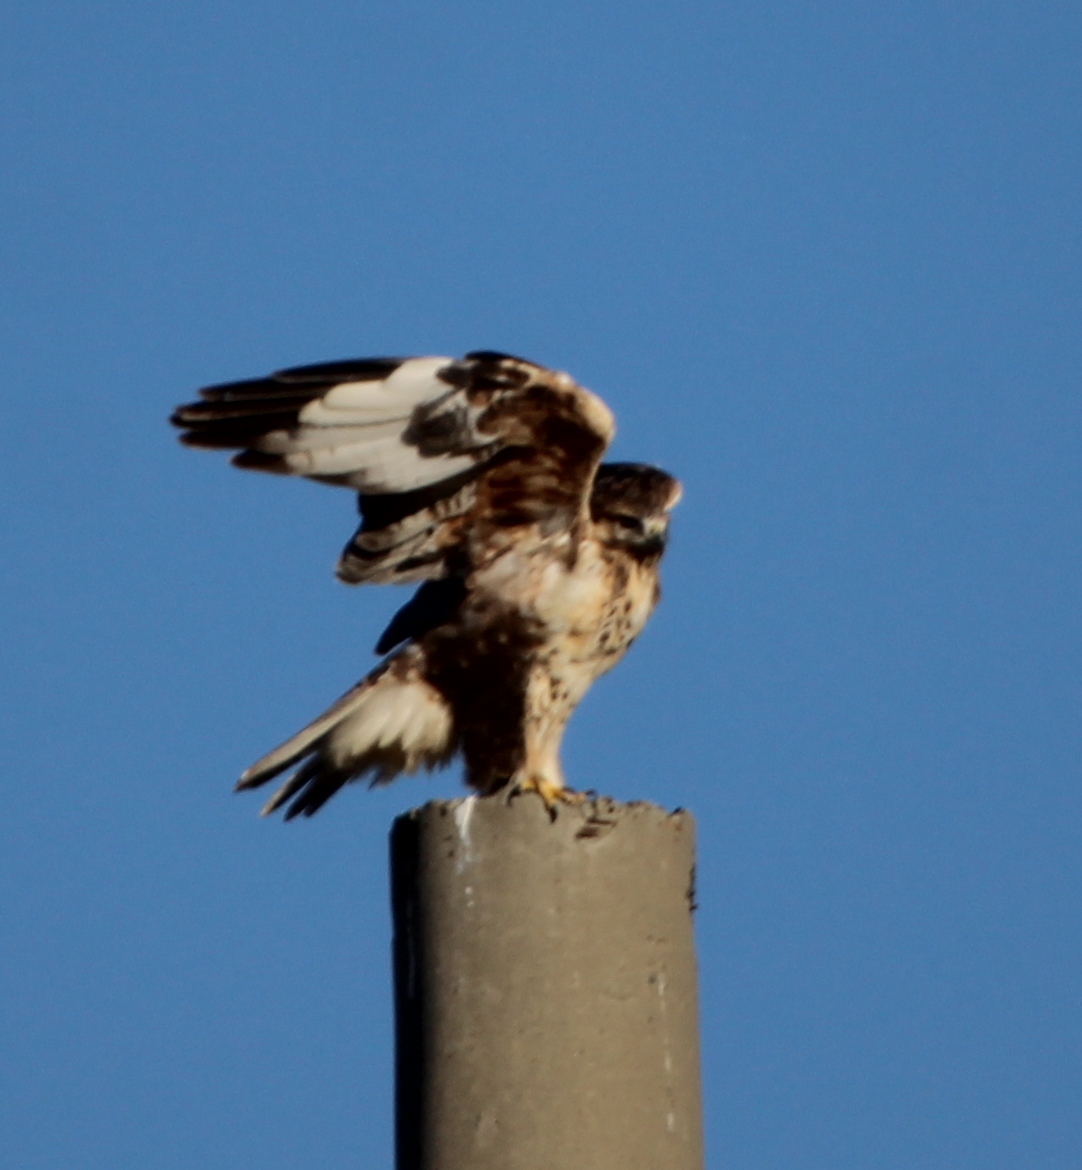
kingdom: Animalia
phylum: Chordata
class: Aves
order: Accipitriformes
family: Accipitridae
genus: Buteo
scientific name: Buteo hemilasius
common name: Upland buzzard
